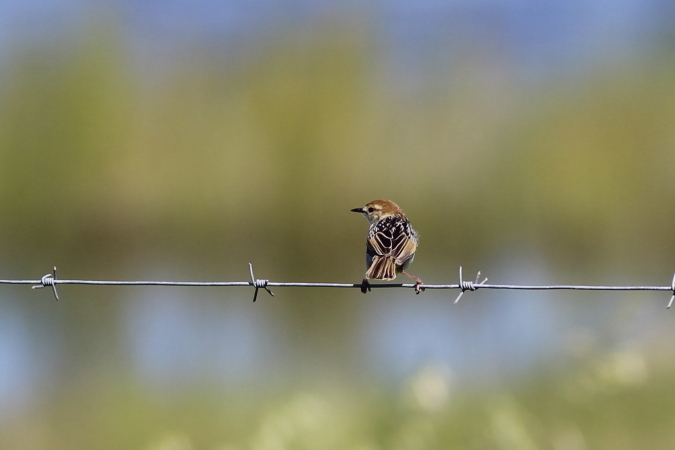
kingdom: Animalia
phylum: Chordata
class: Aves
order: Passeriformes
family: Cisticolidae
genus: Cisticola
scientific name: Cisticola tinniens
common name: Levaillant's cisticola
